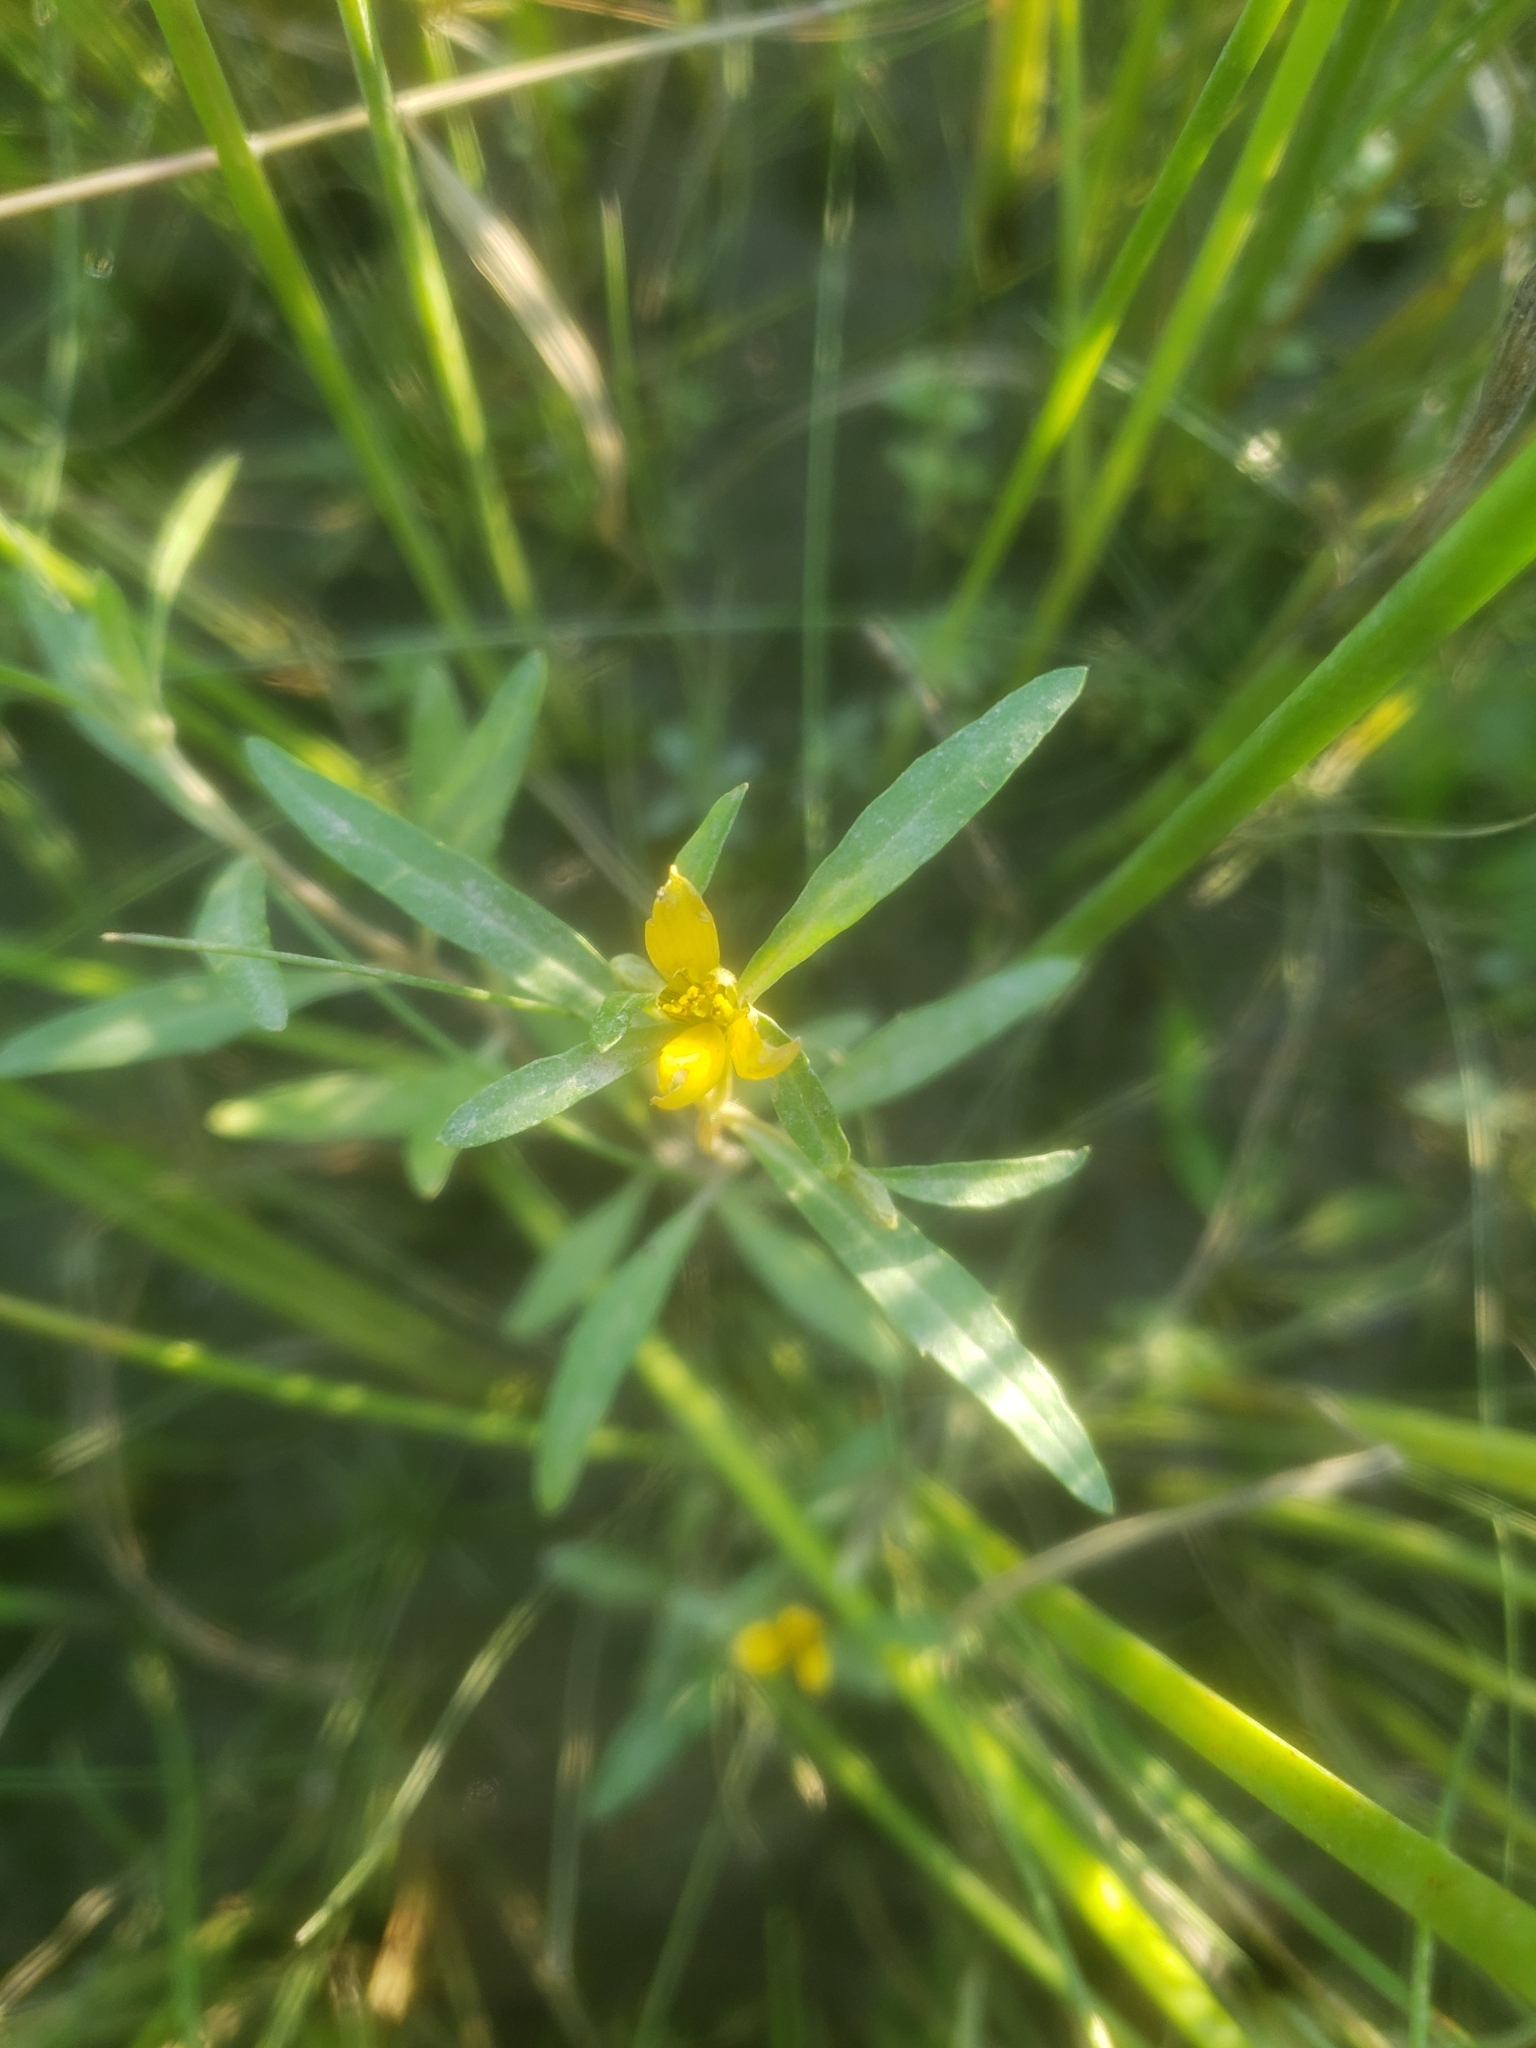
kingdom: Plantae
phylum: Tracheophyta
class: Magnoliopsida
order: Asterales
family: Asteraceae
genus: Bidens
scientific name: Bidens hyperborea
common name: Coastal beggarticks
